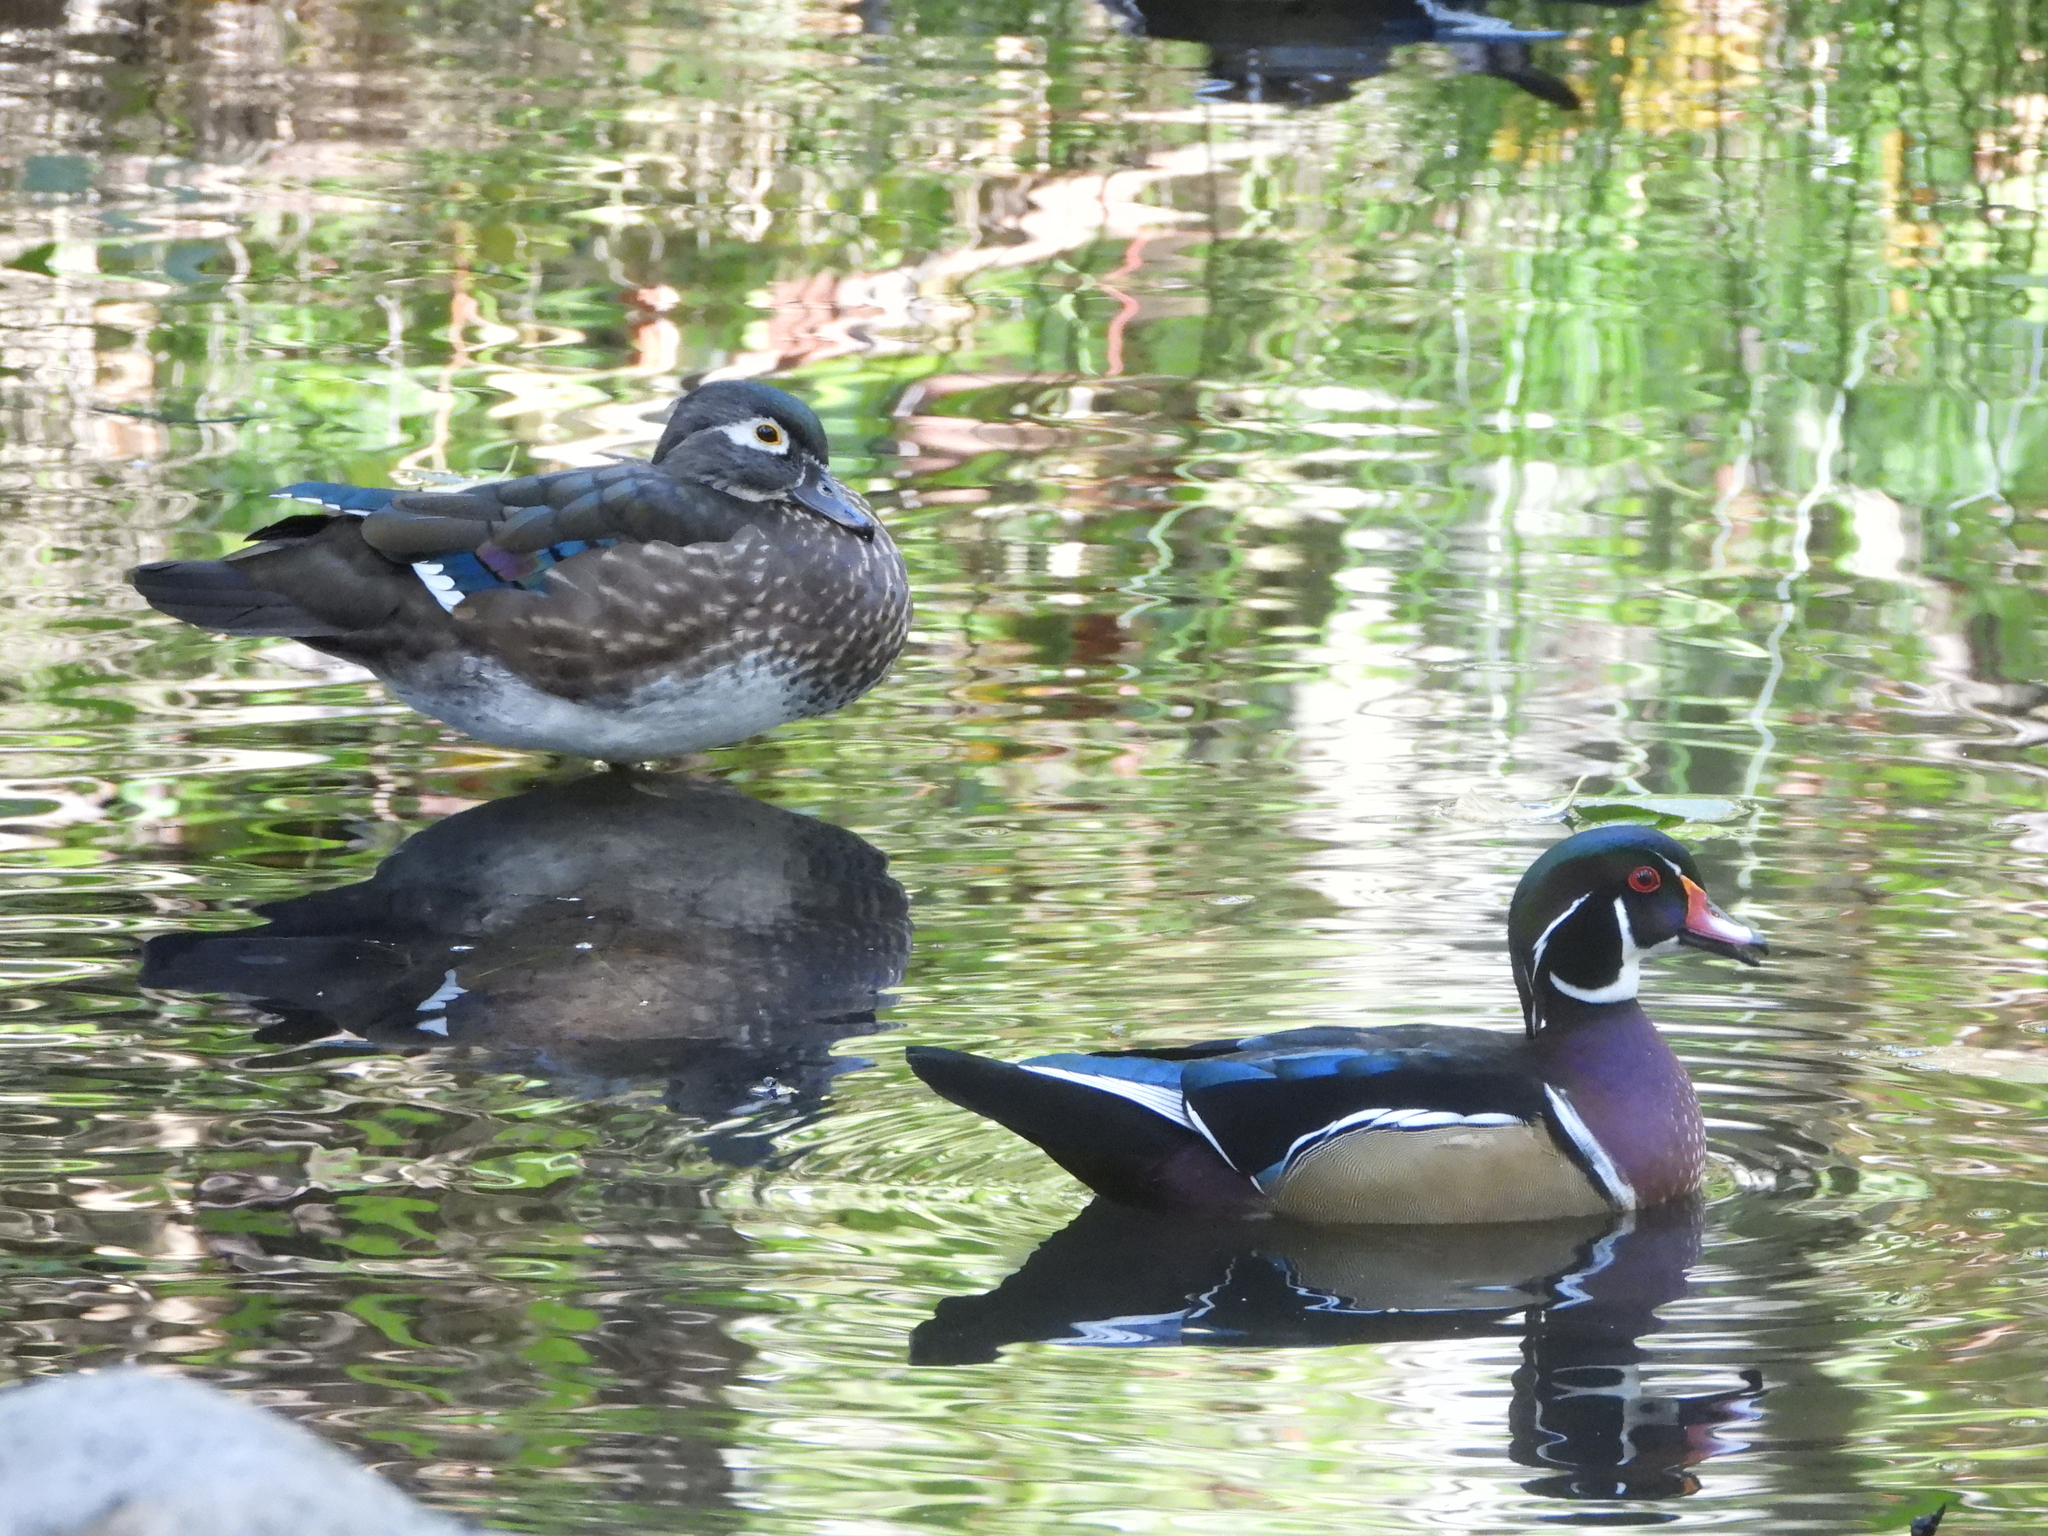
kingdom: Animalia
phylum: Chordata
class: Aves
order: Anseriformes
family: Anatidae
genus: Aix
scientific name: Aix sponsa
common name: Wood duck
